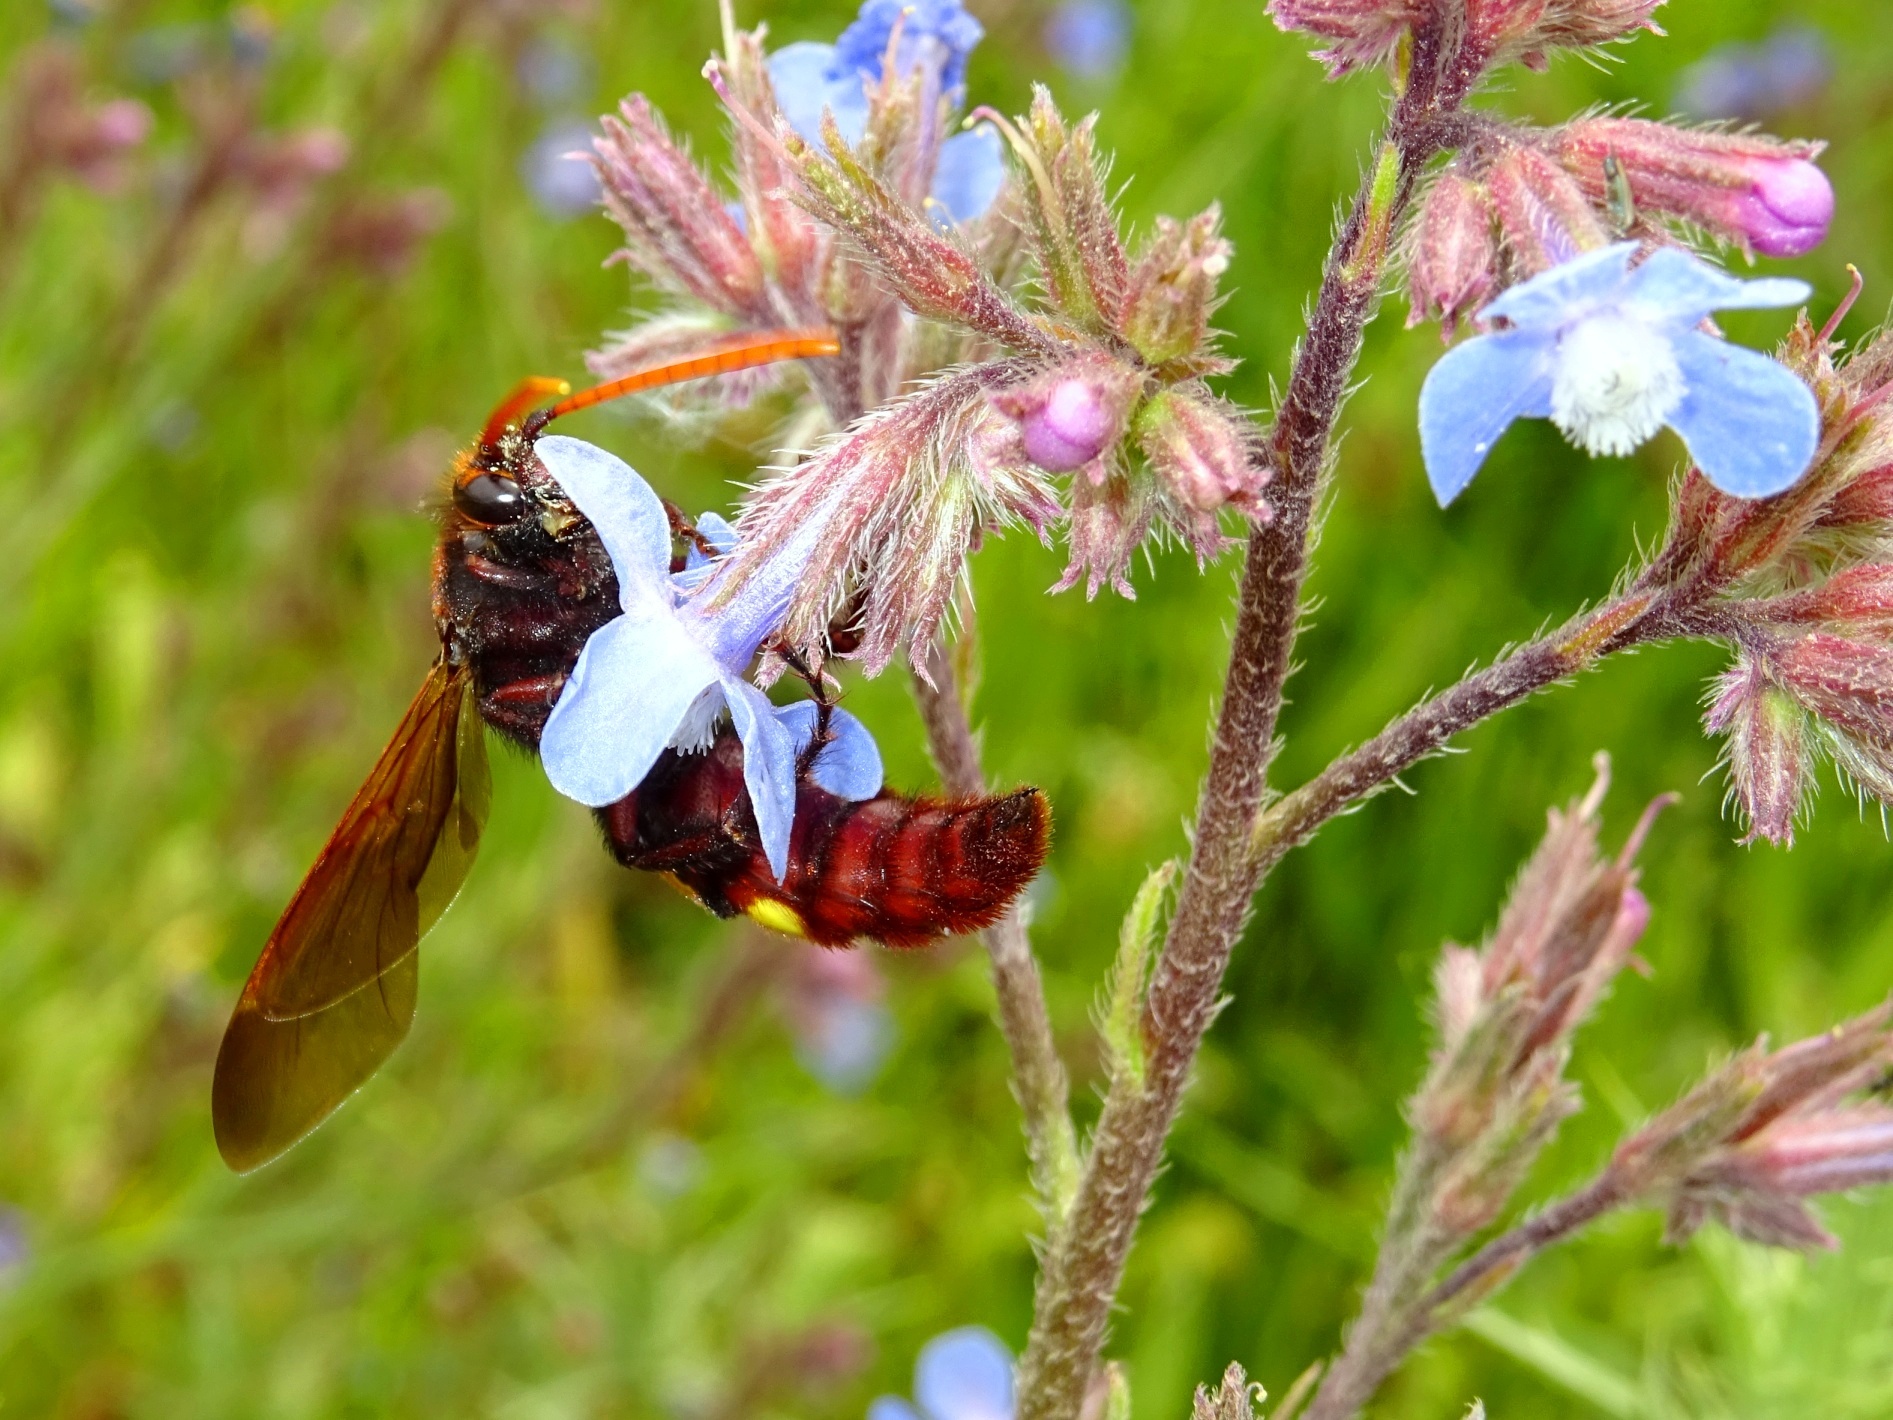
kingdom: Animalia
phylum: Arthropoda
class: Insecta
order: Hymenoptera
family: Scoliidae
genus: Megascolia
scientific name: Megascolia
